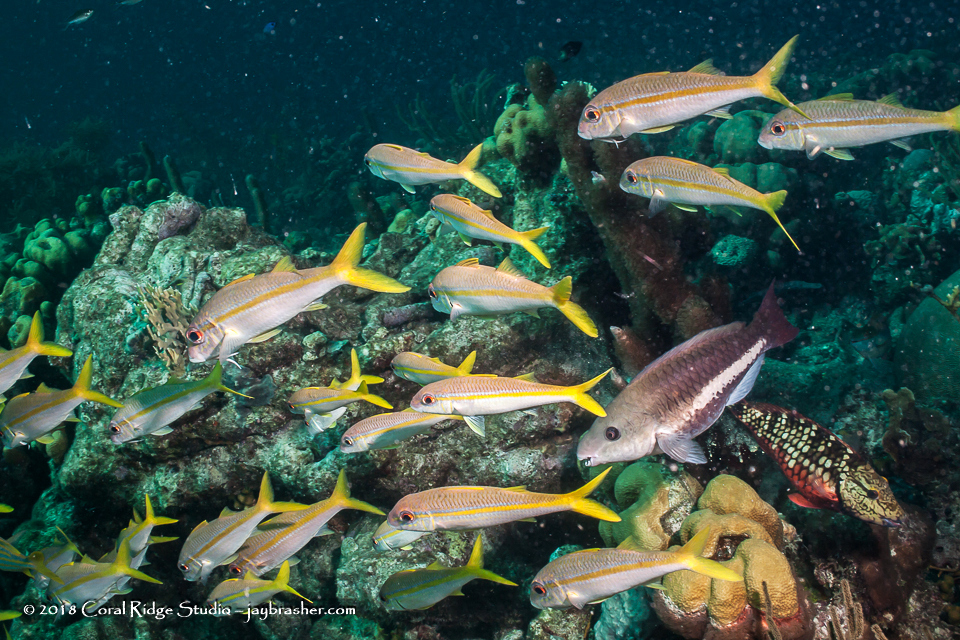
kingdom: Animalia
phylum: Chordata
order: Perciformes
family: Mullidae
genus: Mulloidichthys
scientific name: Mulloidichthys martinicus
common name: Yellow goatfish
